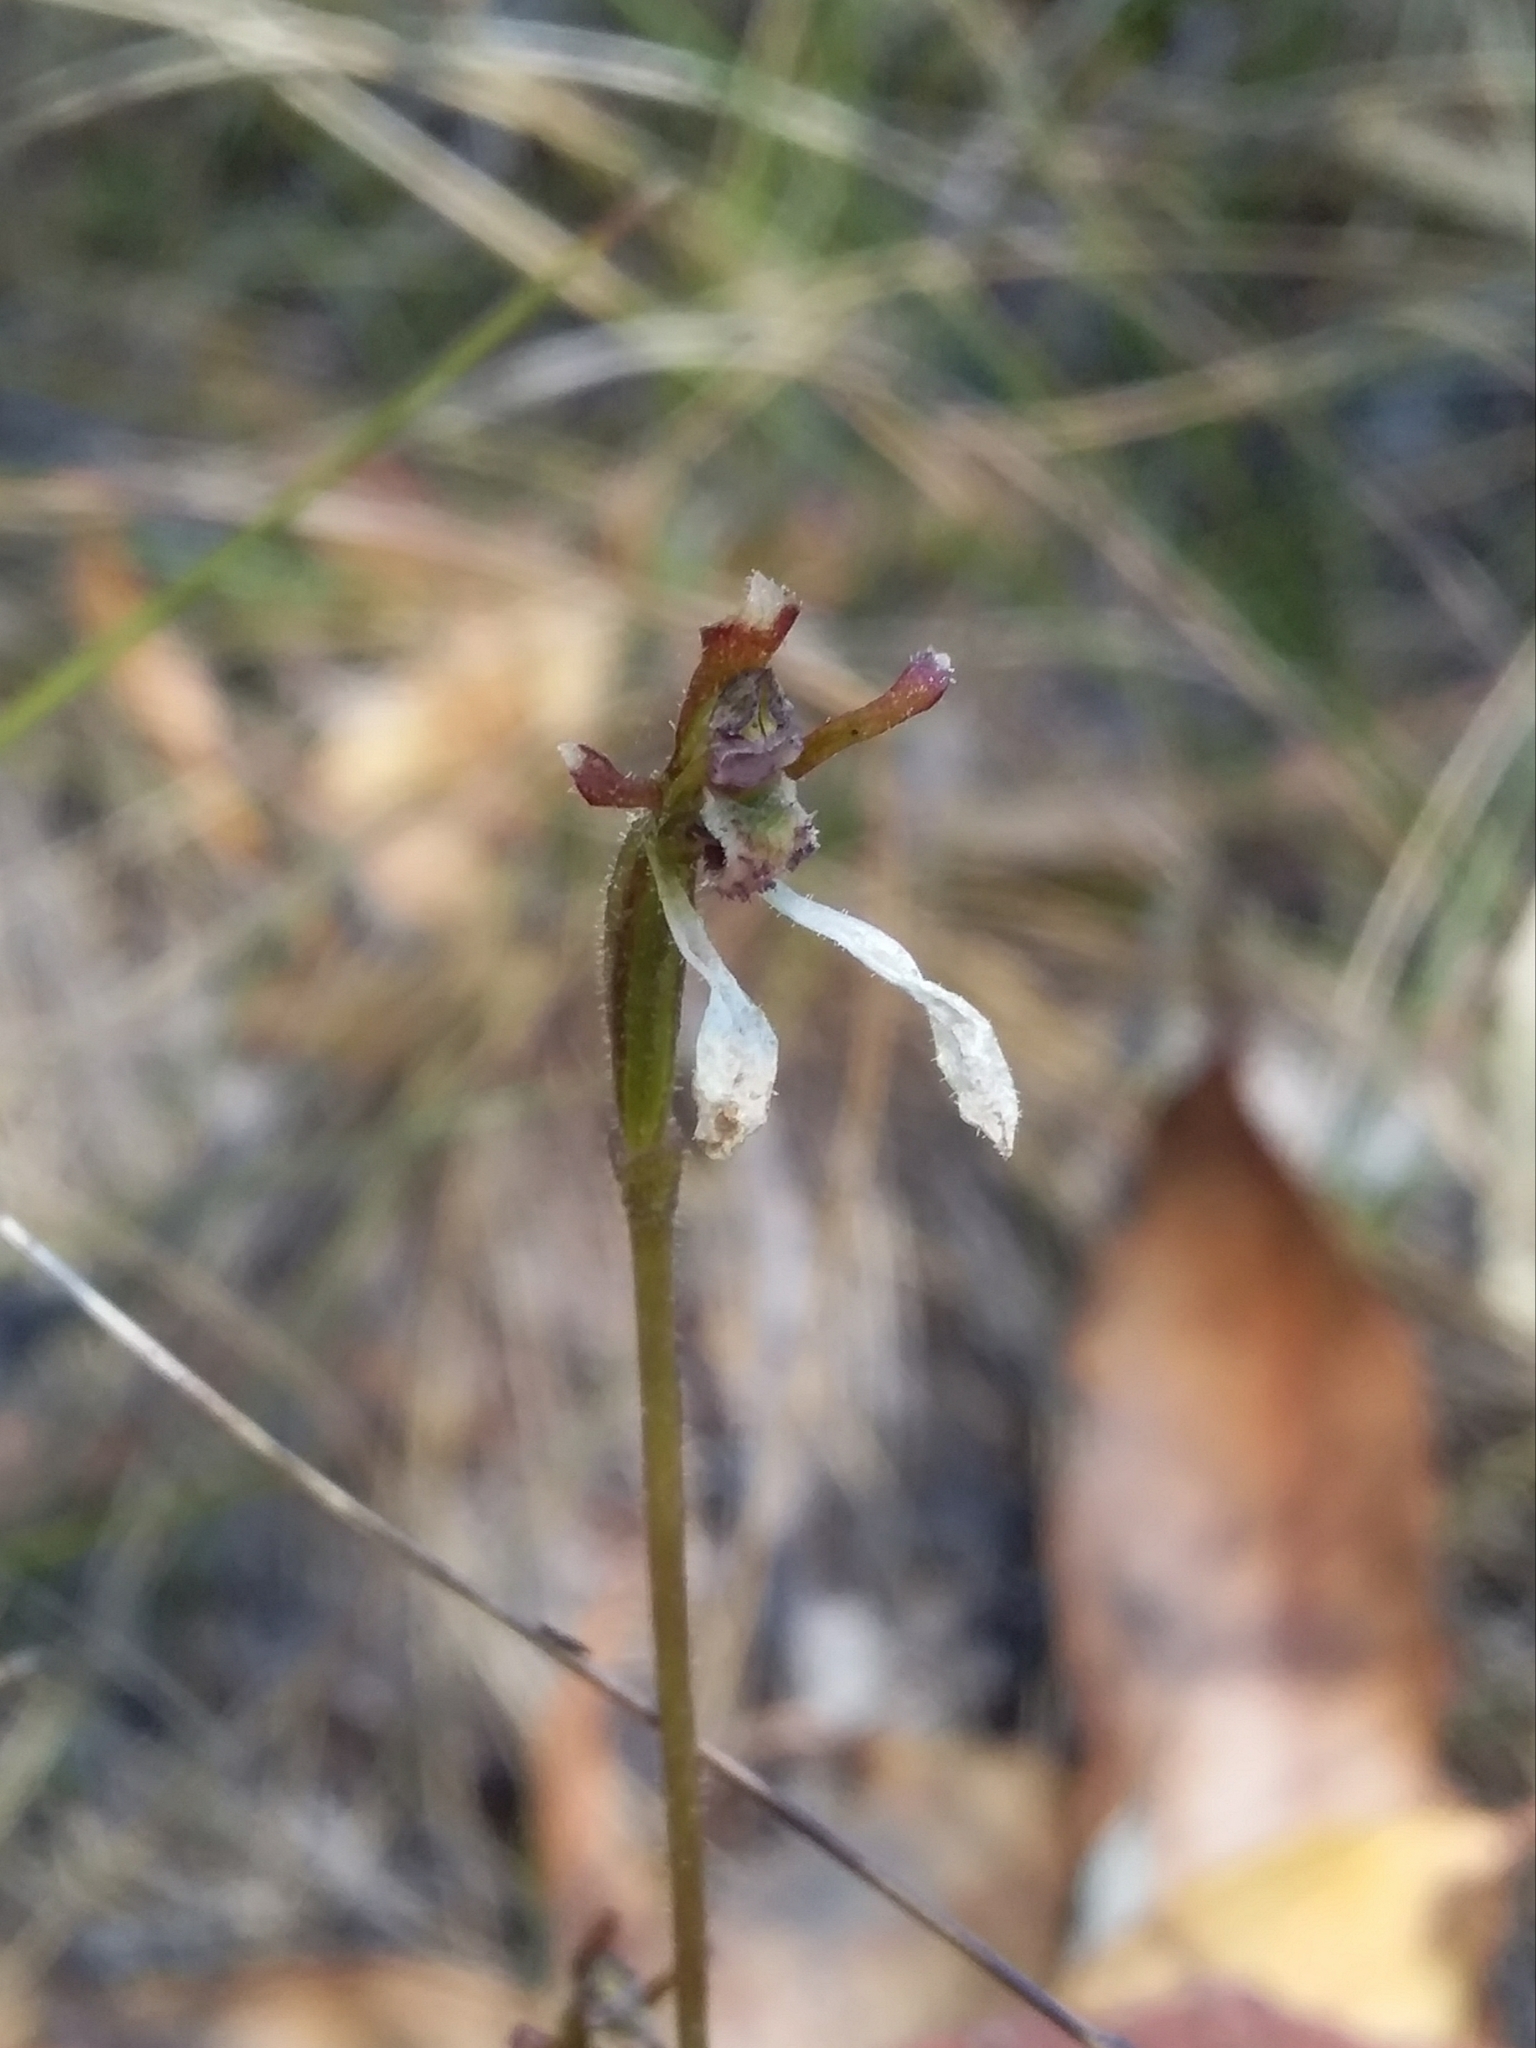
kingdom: Plantae
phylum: Tracheophyta
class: Liliopsida
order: Asparagales
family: Orchidaceae
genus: Eriochilus
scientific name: Eriochilus collinus
